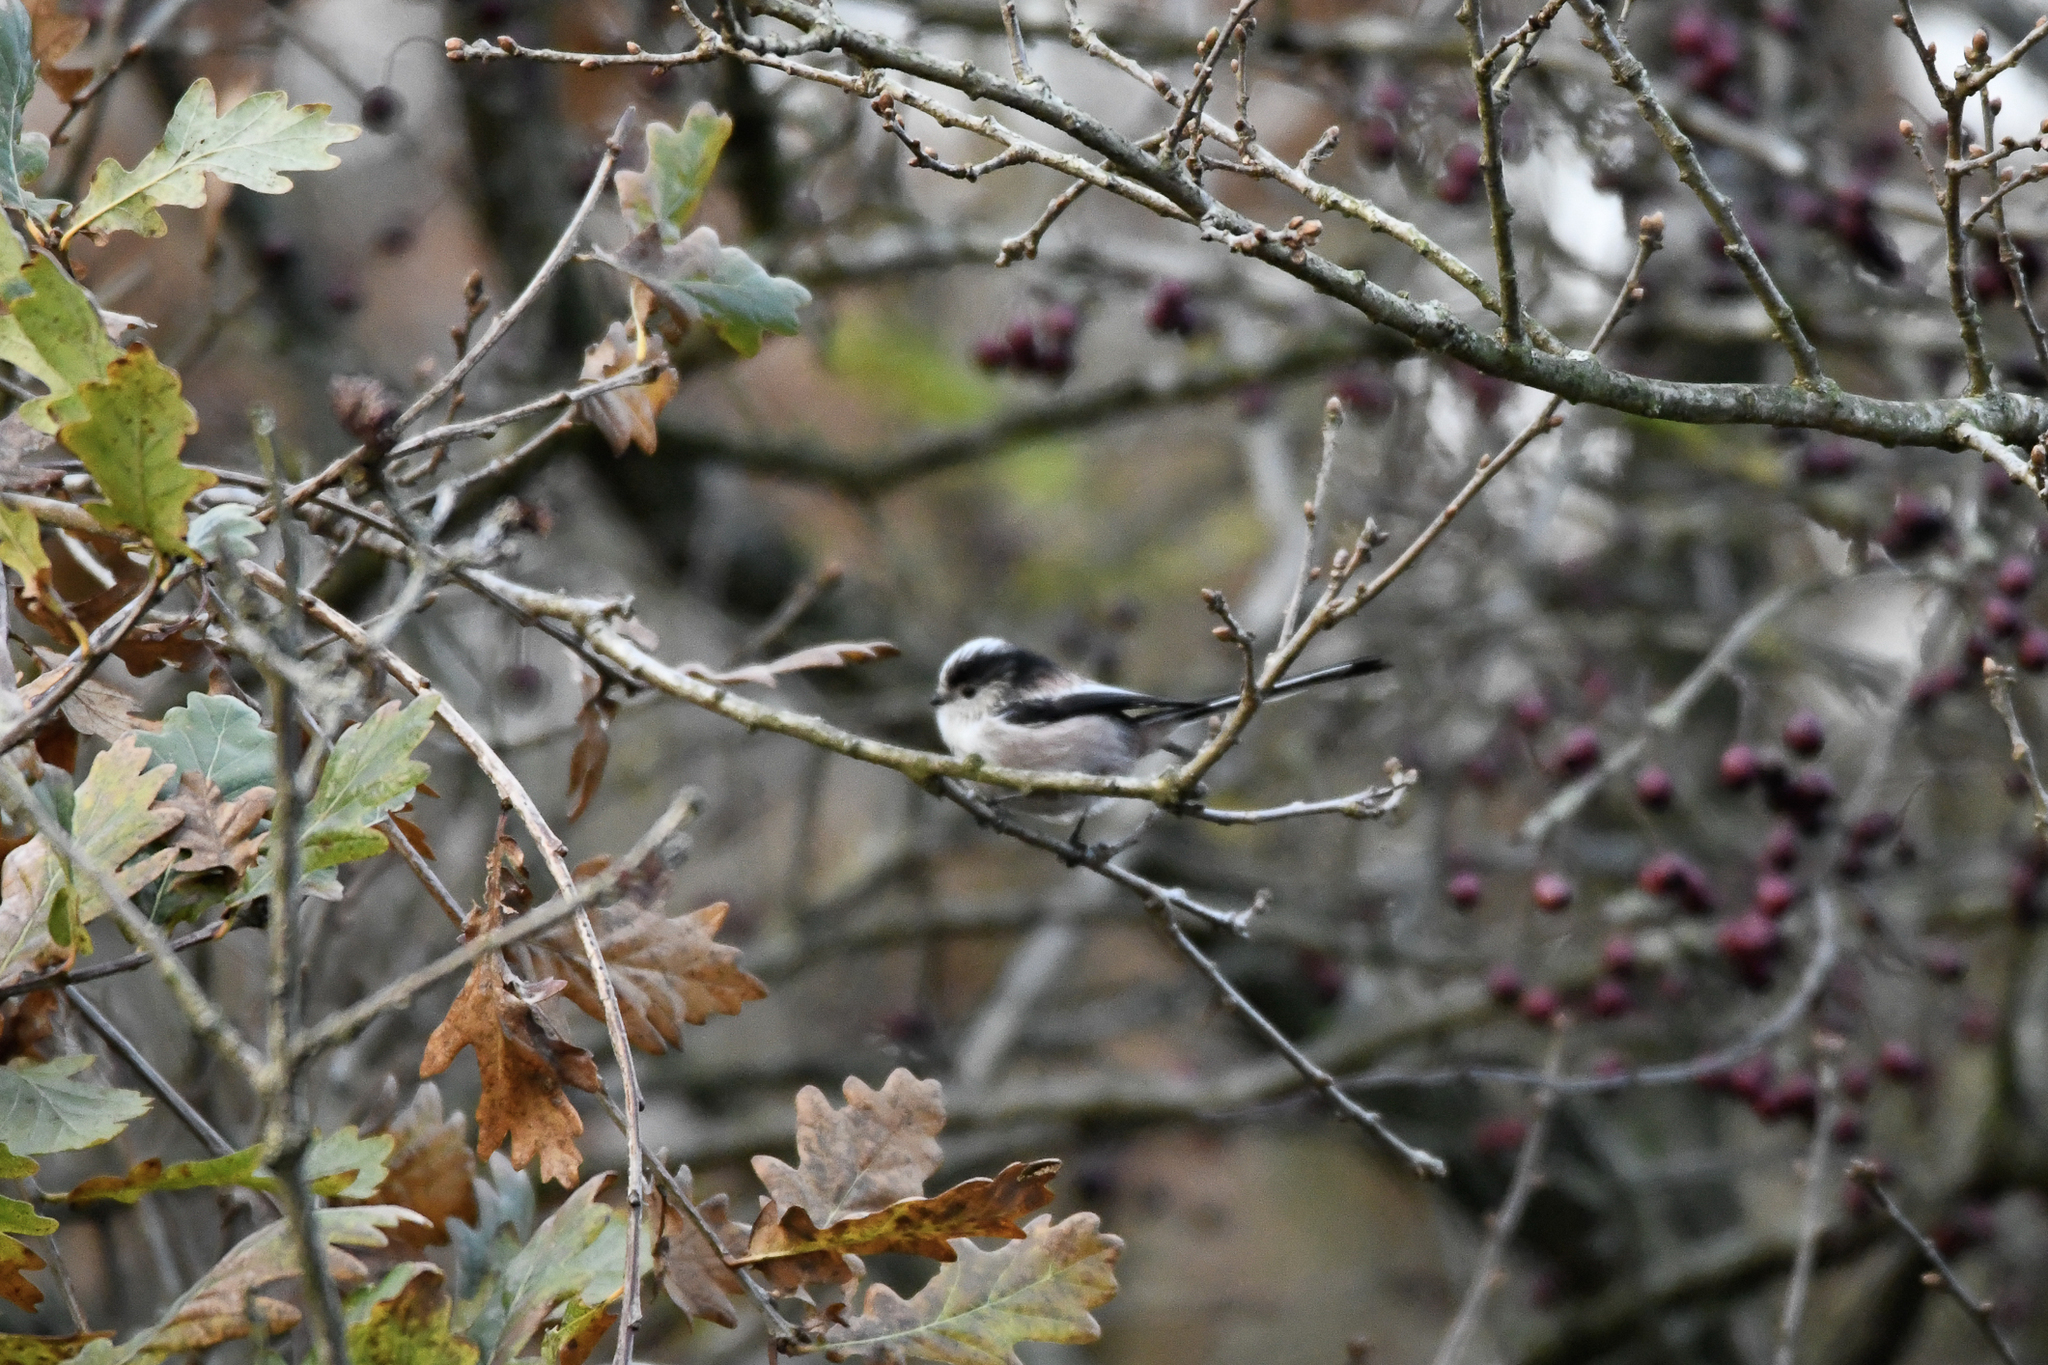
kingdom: Animalia
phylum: Chordata
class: Aves
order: Passeriformes
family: Aegithalidae
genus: Aegithalos
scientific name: Aegithalos caudatus
